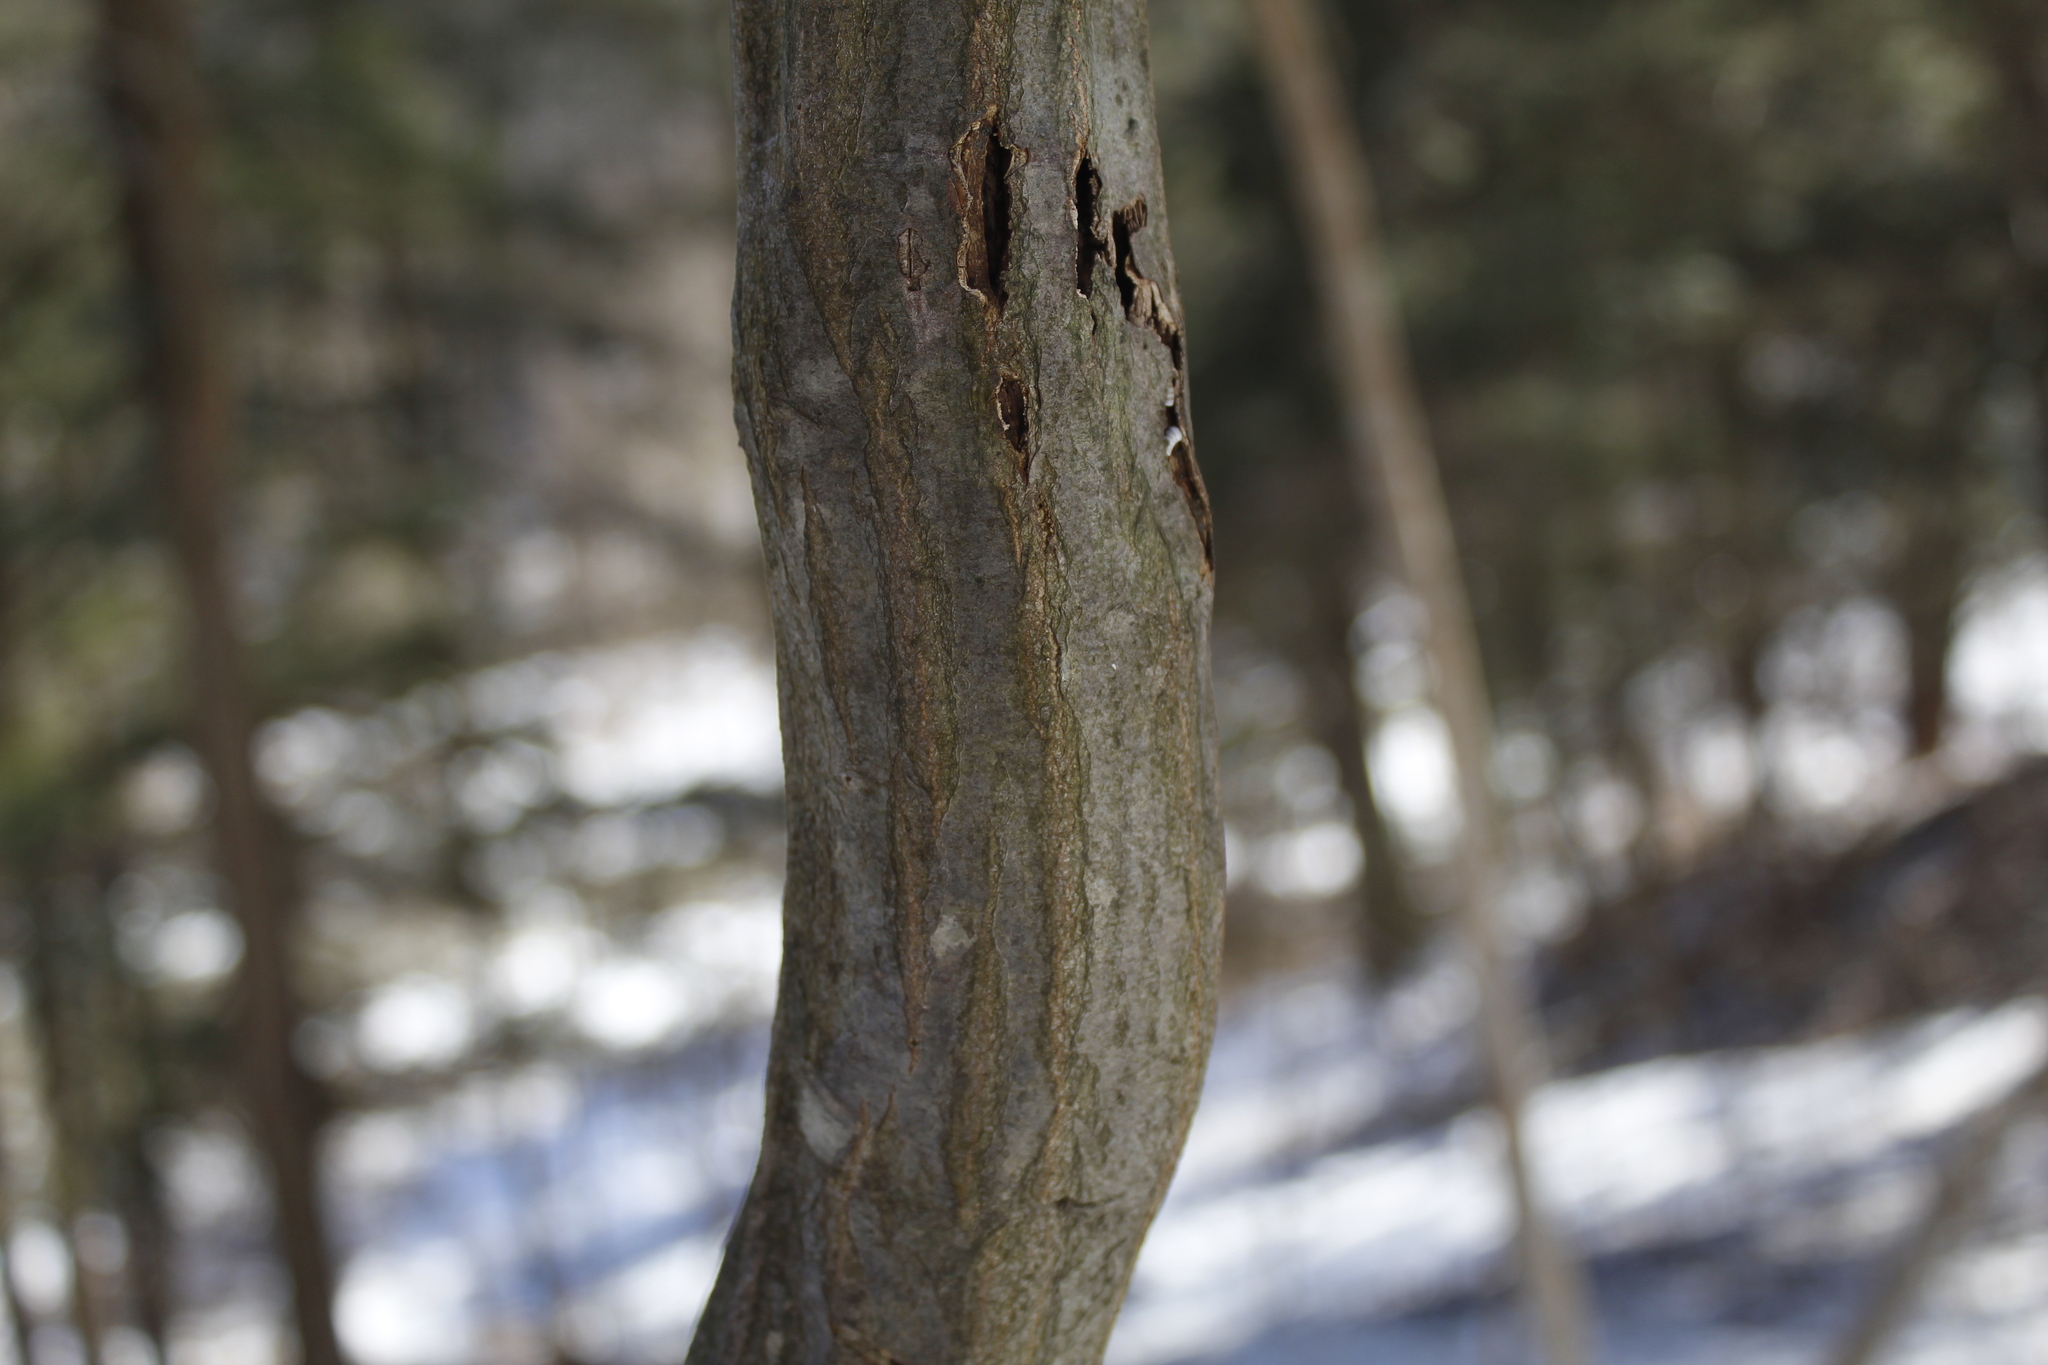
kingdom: Plantae
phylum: Tracheophyta
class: Magnoliopsida
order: Fagales
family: Betulaceae
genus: Carpinus
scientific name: Carpinus caroliniana
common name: American hornbeam
